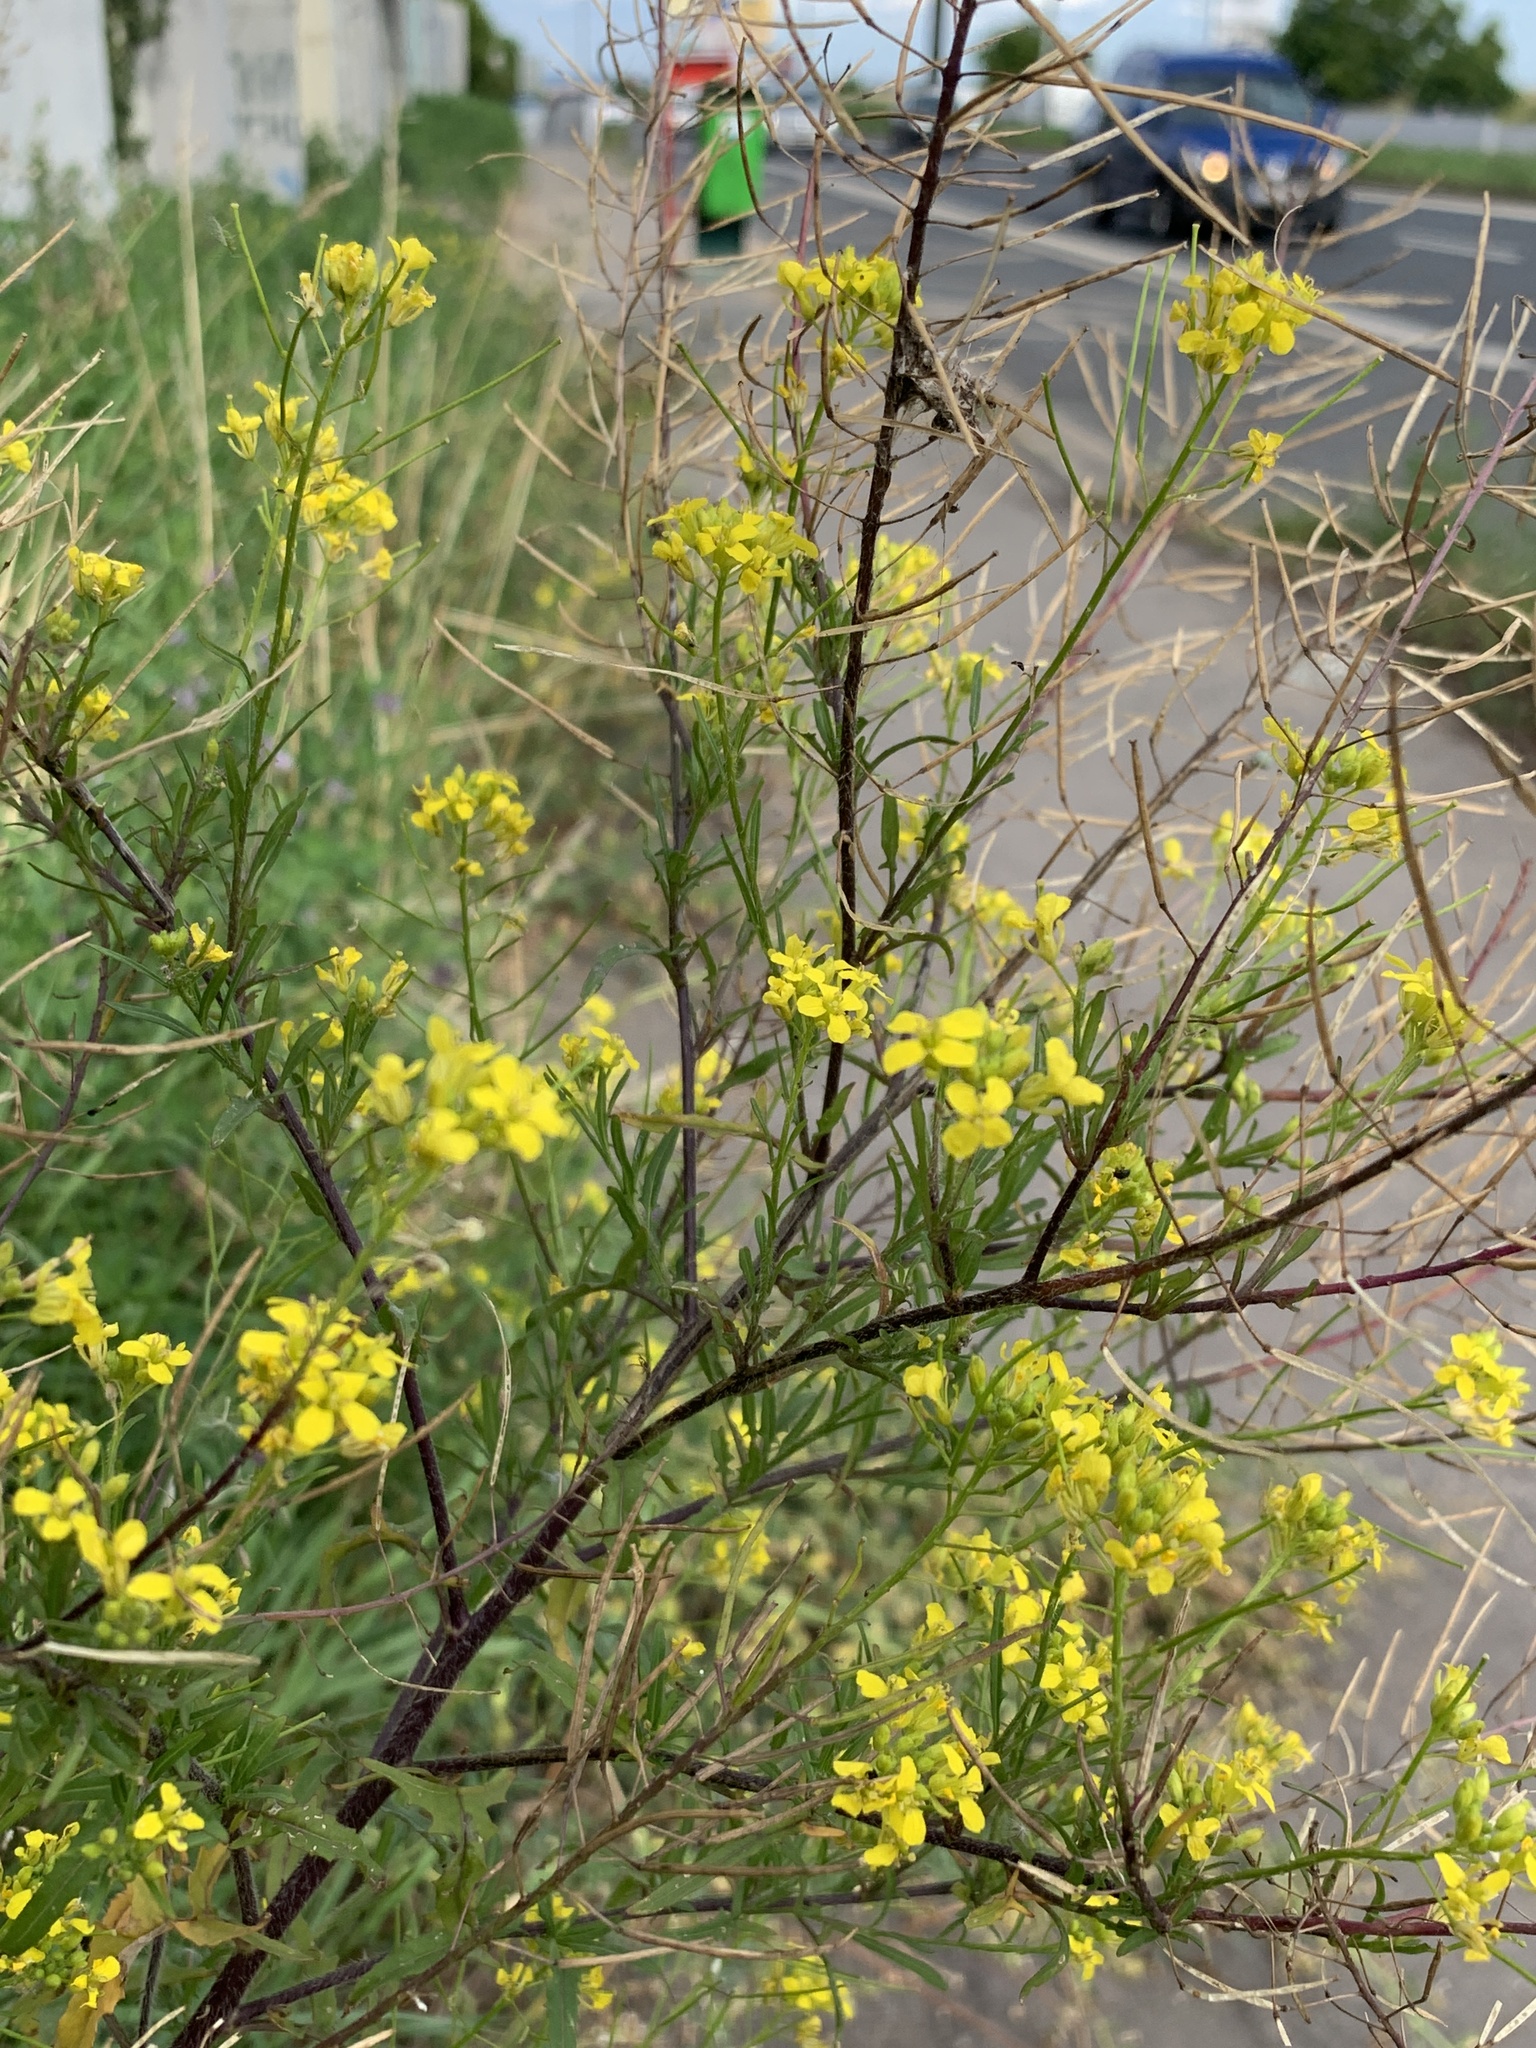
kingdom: Plantae
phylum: Tracheophyta
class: Magnoliopsida
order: Brassicales
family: Brassicaceae
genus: Sisymbrium
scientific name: Sisymbrium loeselii
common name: False london-rocket
